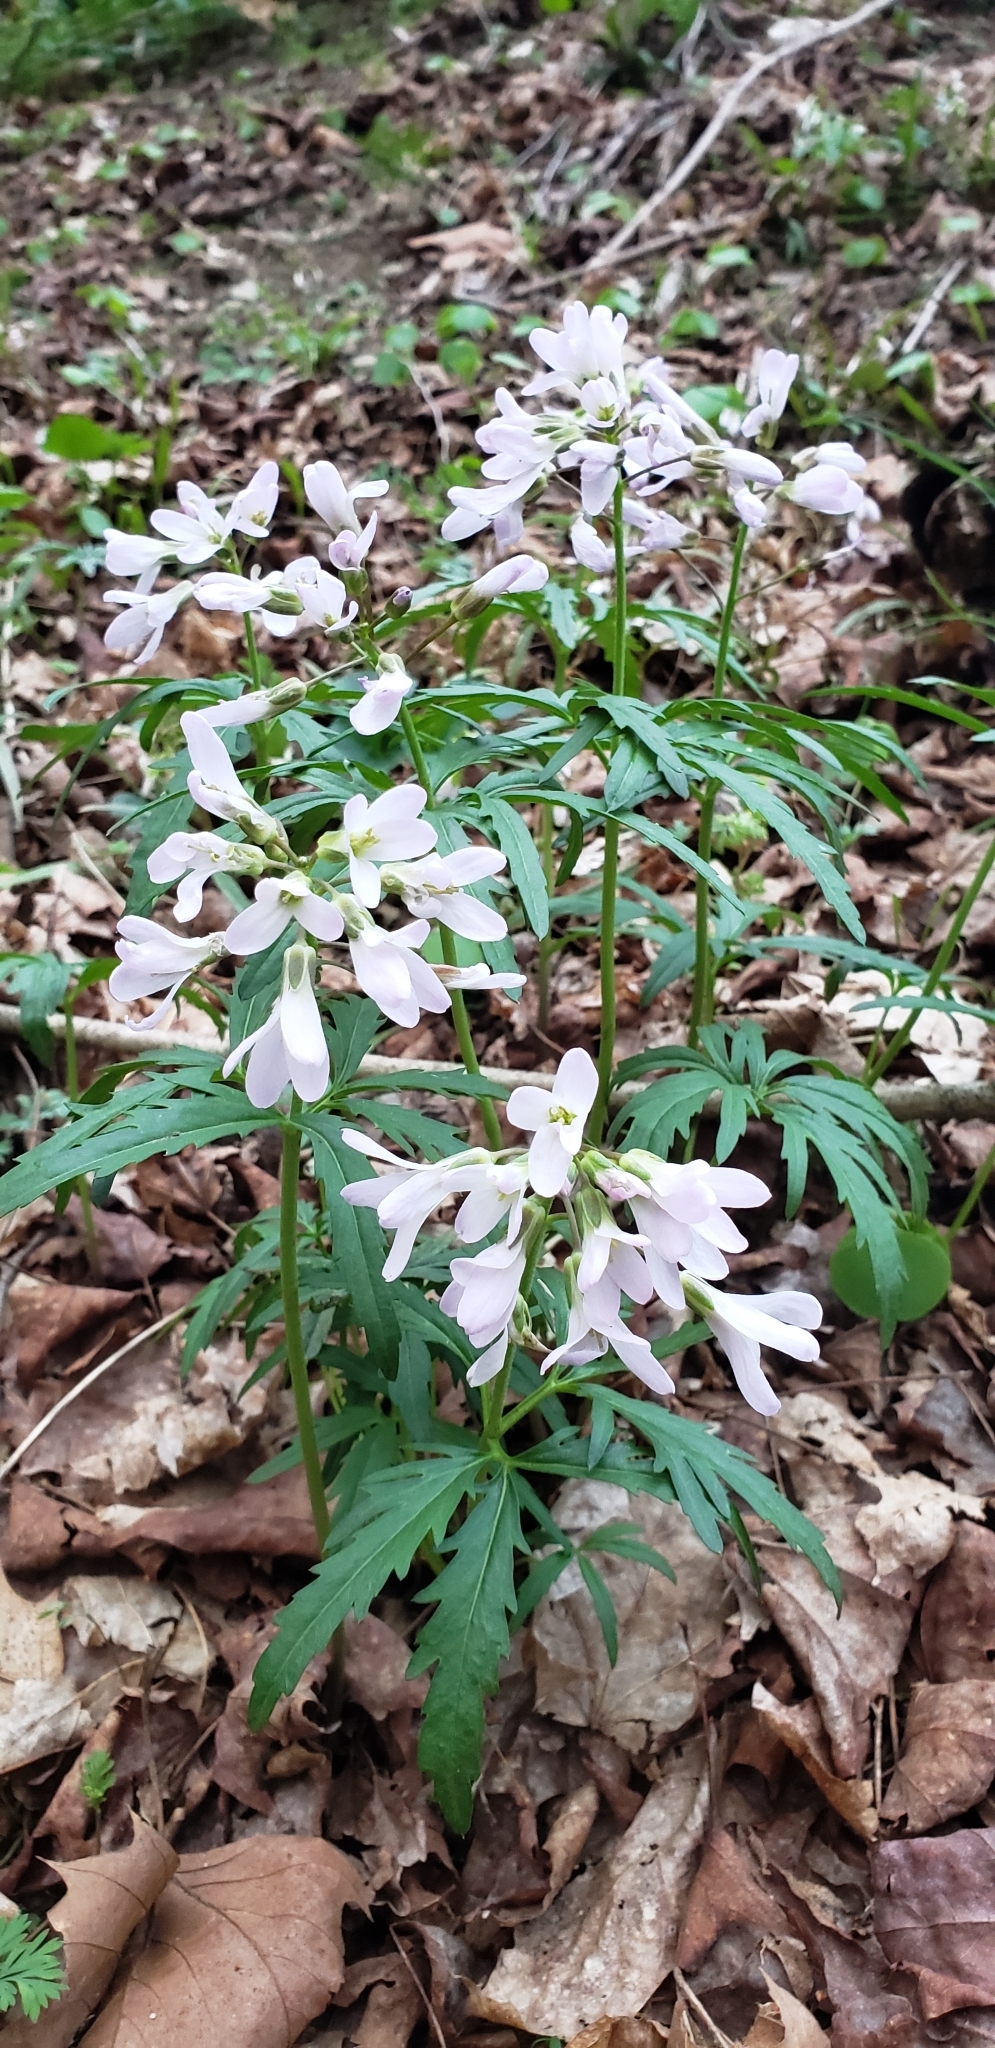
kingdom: Plantae
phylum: Tracheophyta
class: Magnoliopsida
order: Brassicales
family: Brassicaceae
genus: Cardamine
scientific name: Cardamine concatenata
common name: Cut-leaf toothcup
